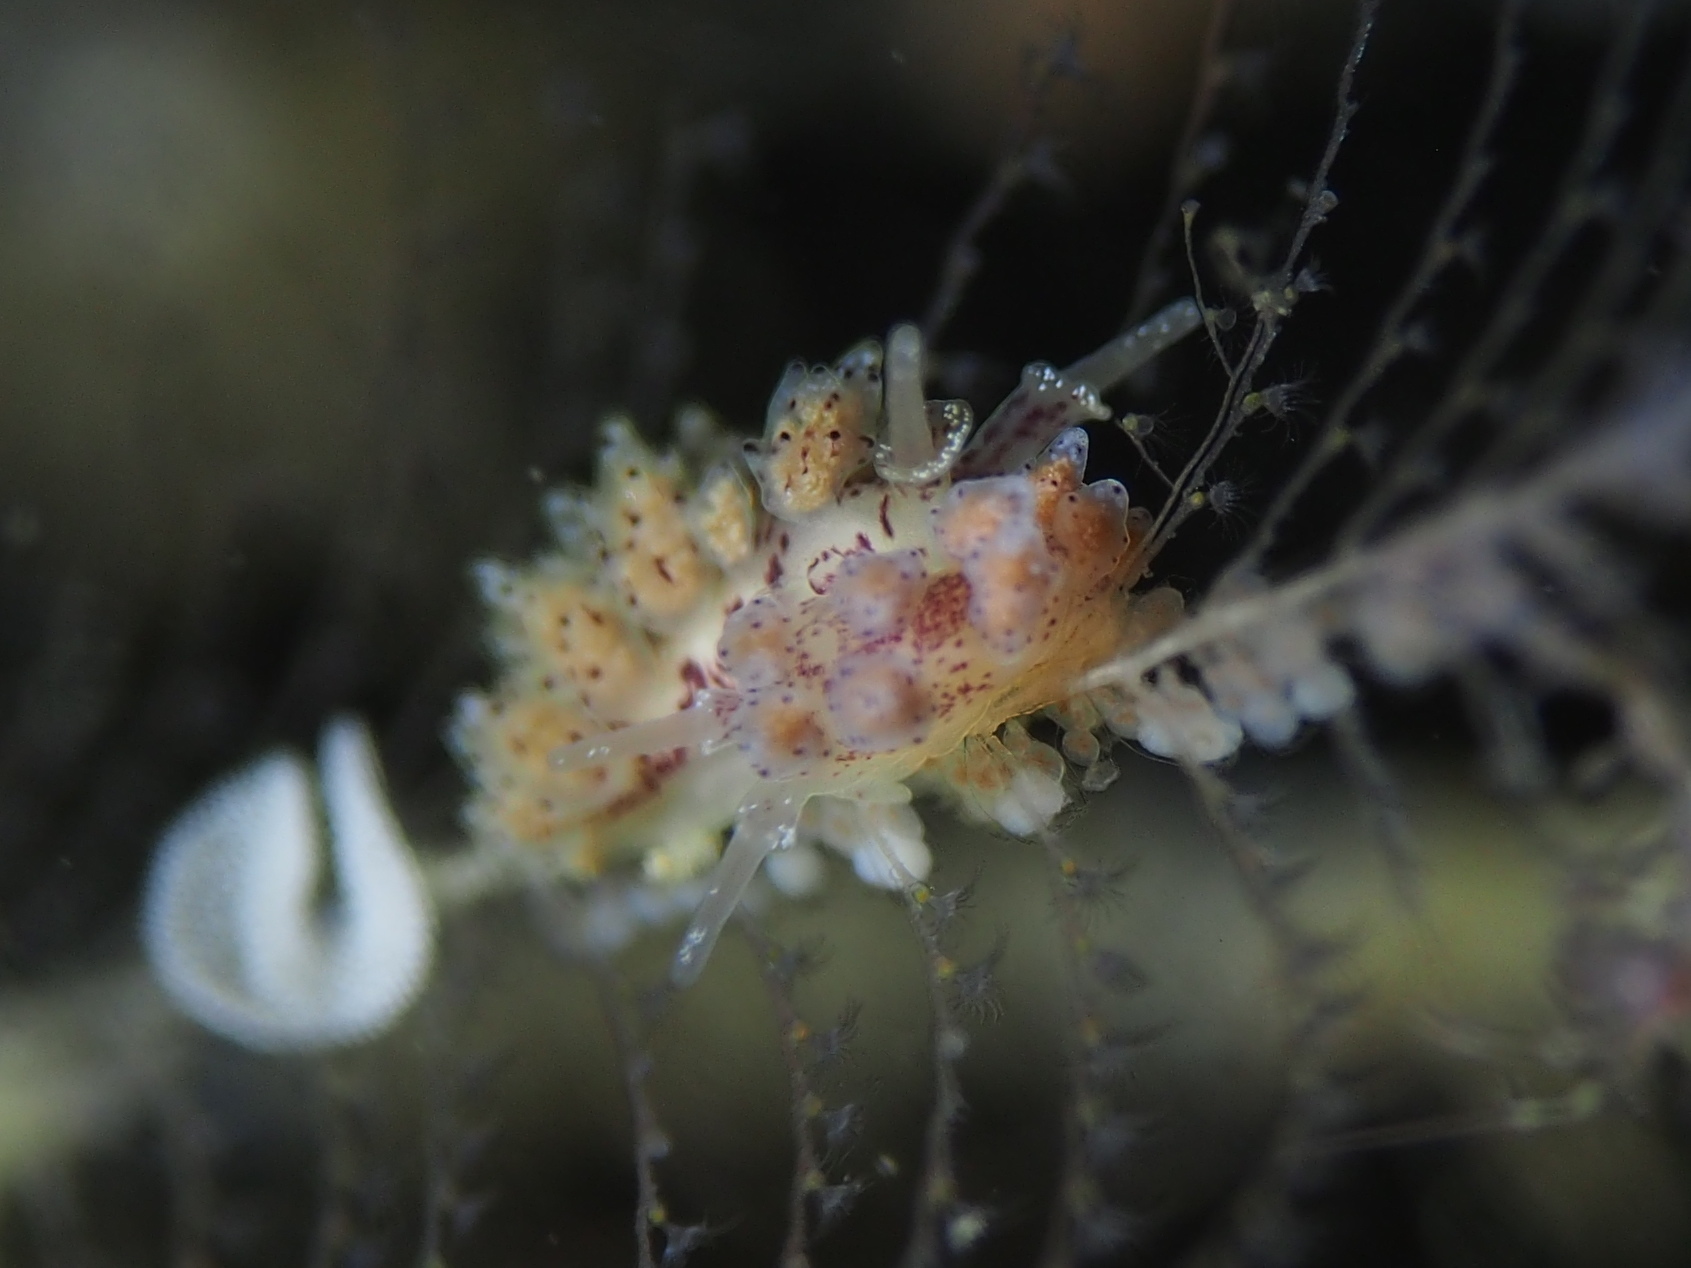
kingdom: Animalia
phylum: Mollusca
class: Gastropoda
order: Nudibranchia
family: Dotidae
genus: Doto
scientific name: Doto dunnei
